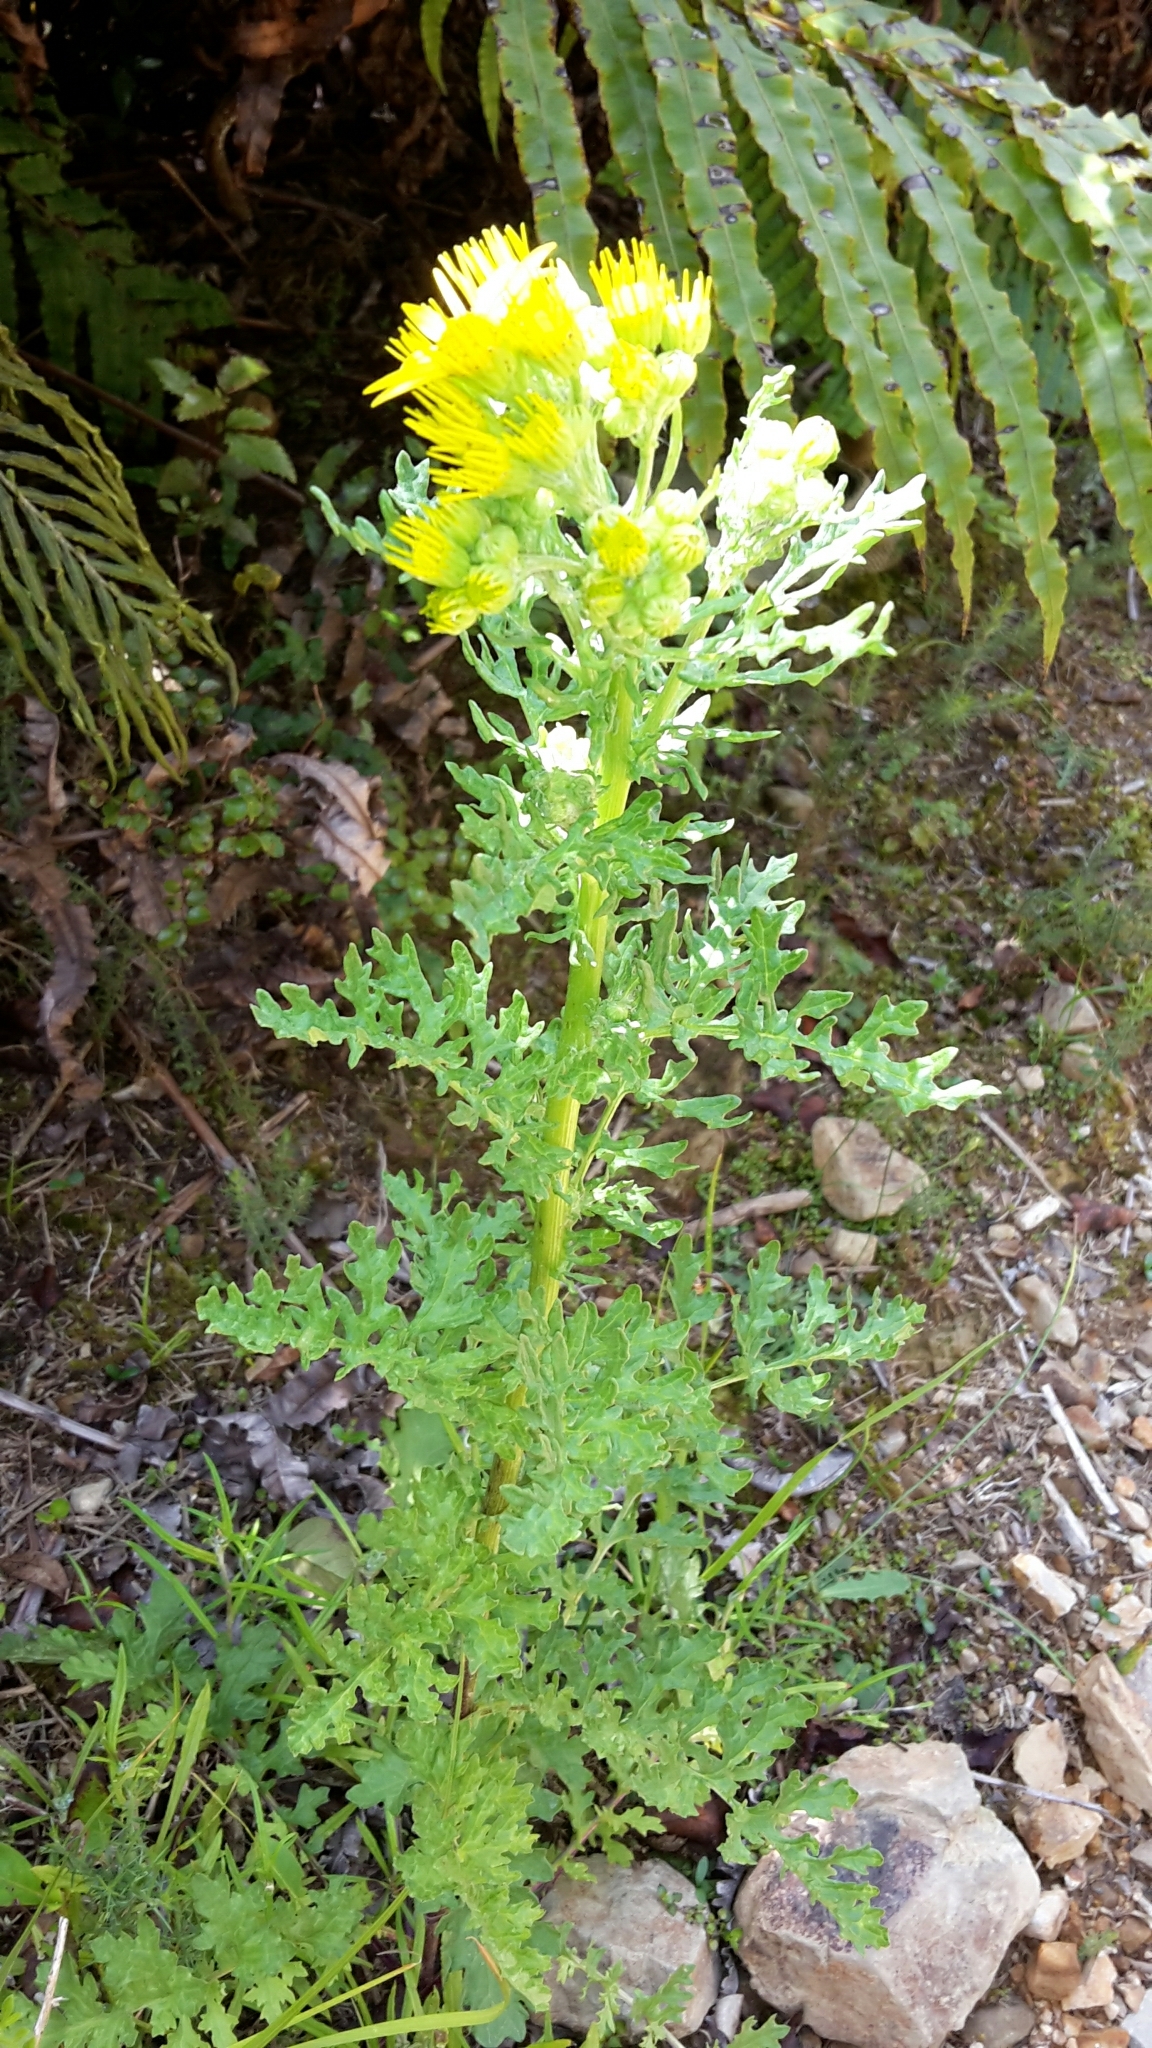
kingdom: Plantae
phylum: Tracheophyta
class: Magnoliopsida
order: Asterales
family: Asteraceae
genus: Jacobaea
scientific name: Jacobaea vulgaris
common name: Stinking willie
